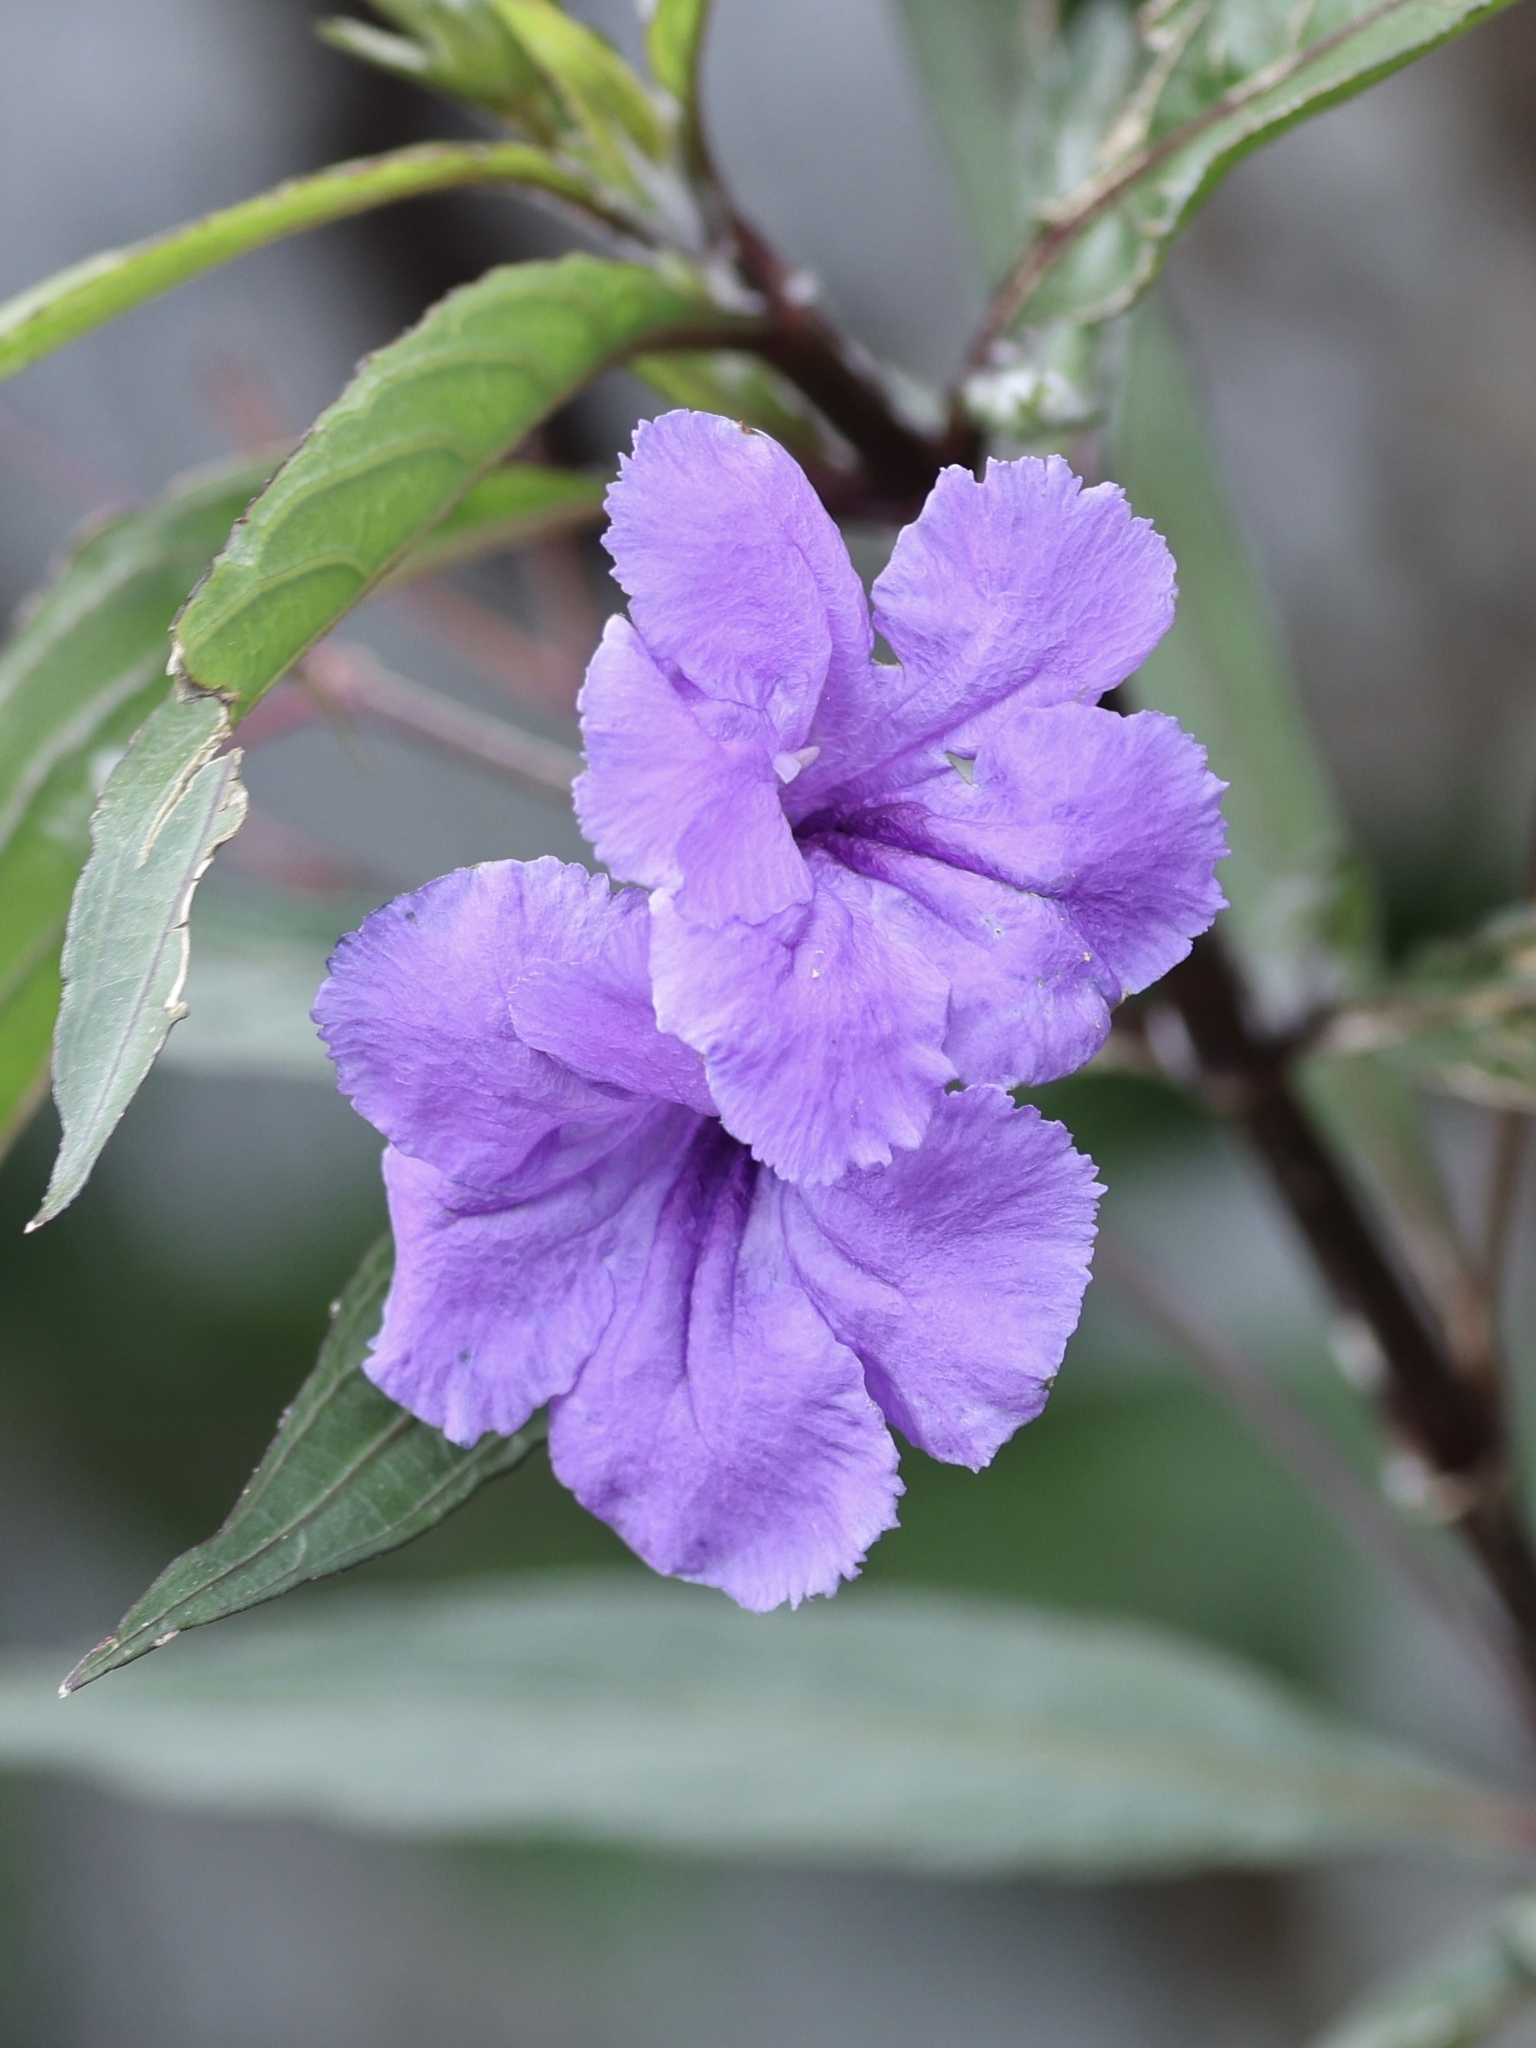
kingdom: Plantae
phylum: Tracheophyta
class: Magnoliopsida
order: Lamiales
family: Acanthaceae
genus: Ruellia
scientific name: Ruellia simplex
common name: Softseed wild petunia
